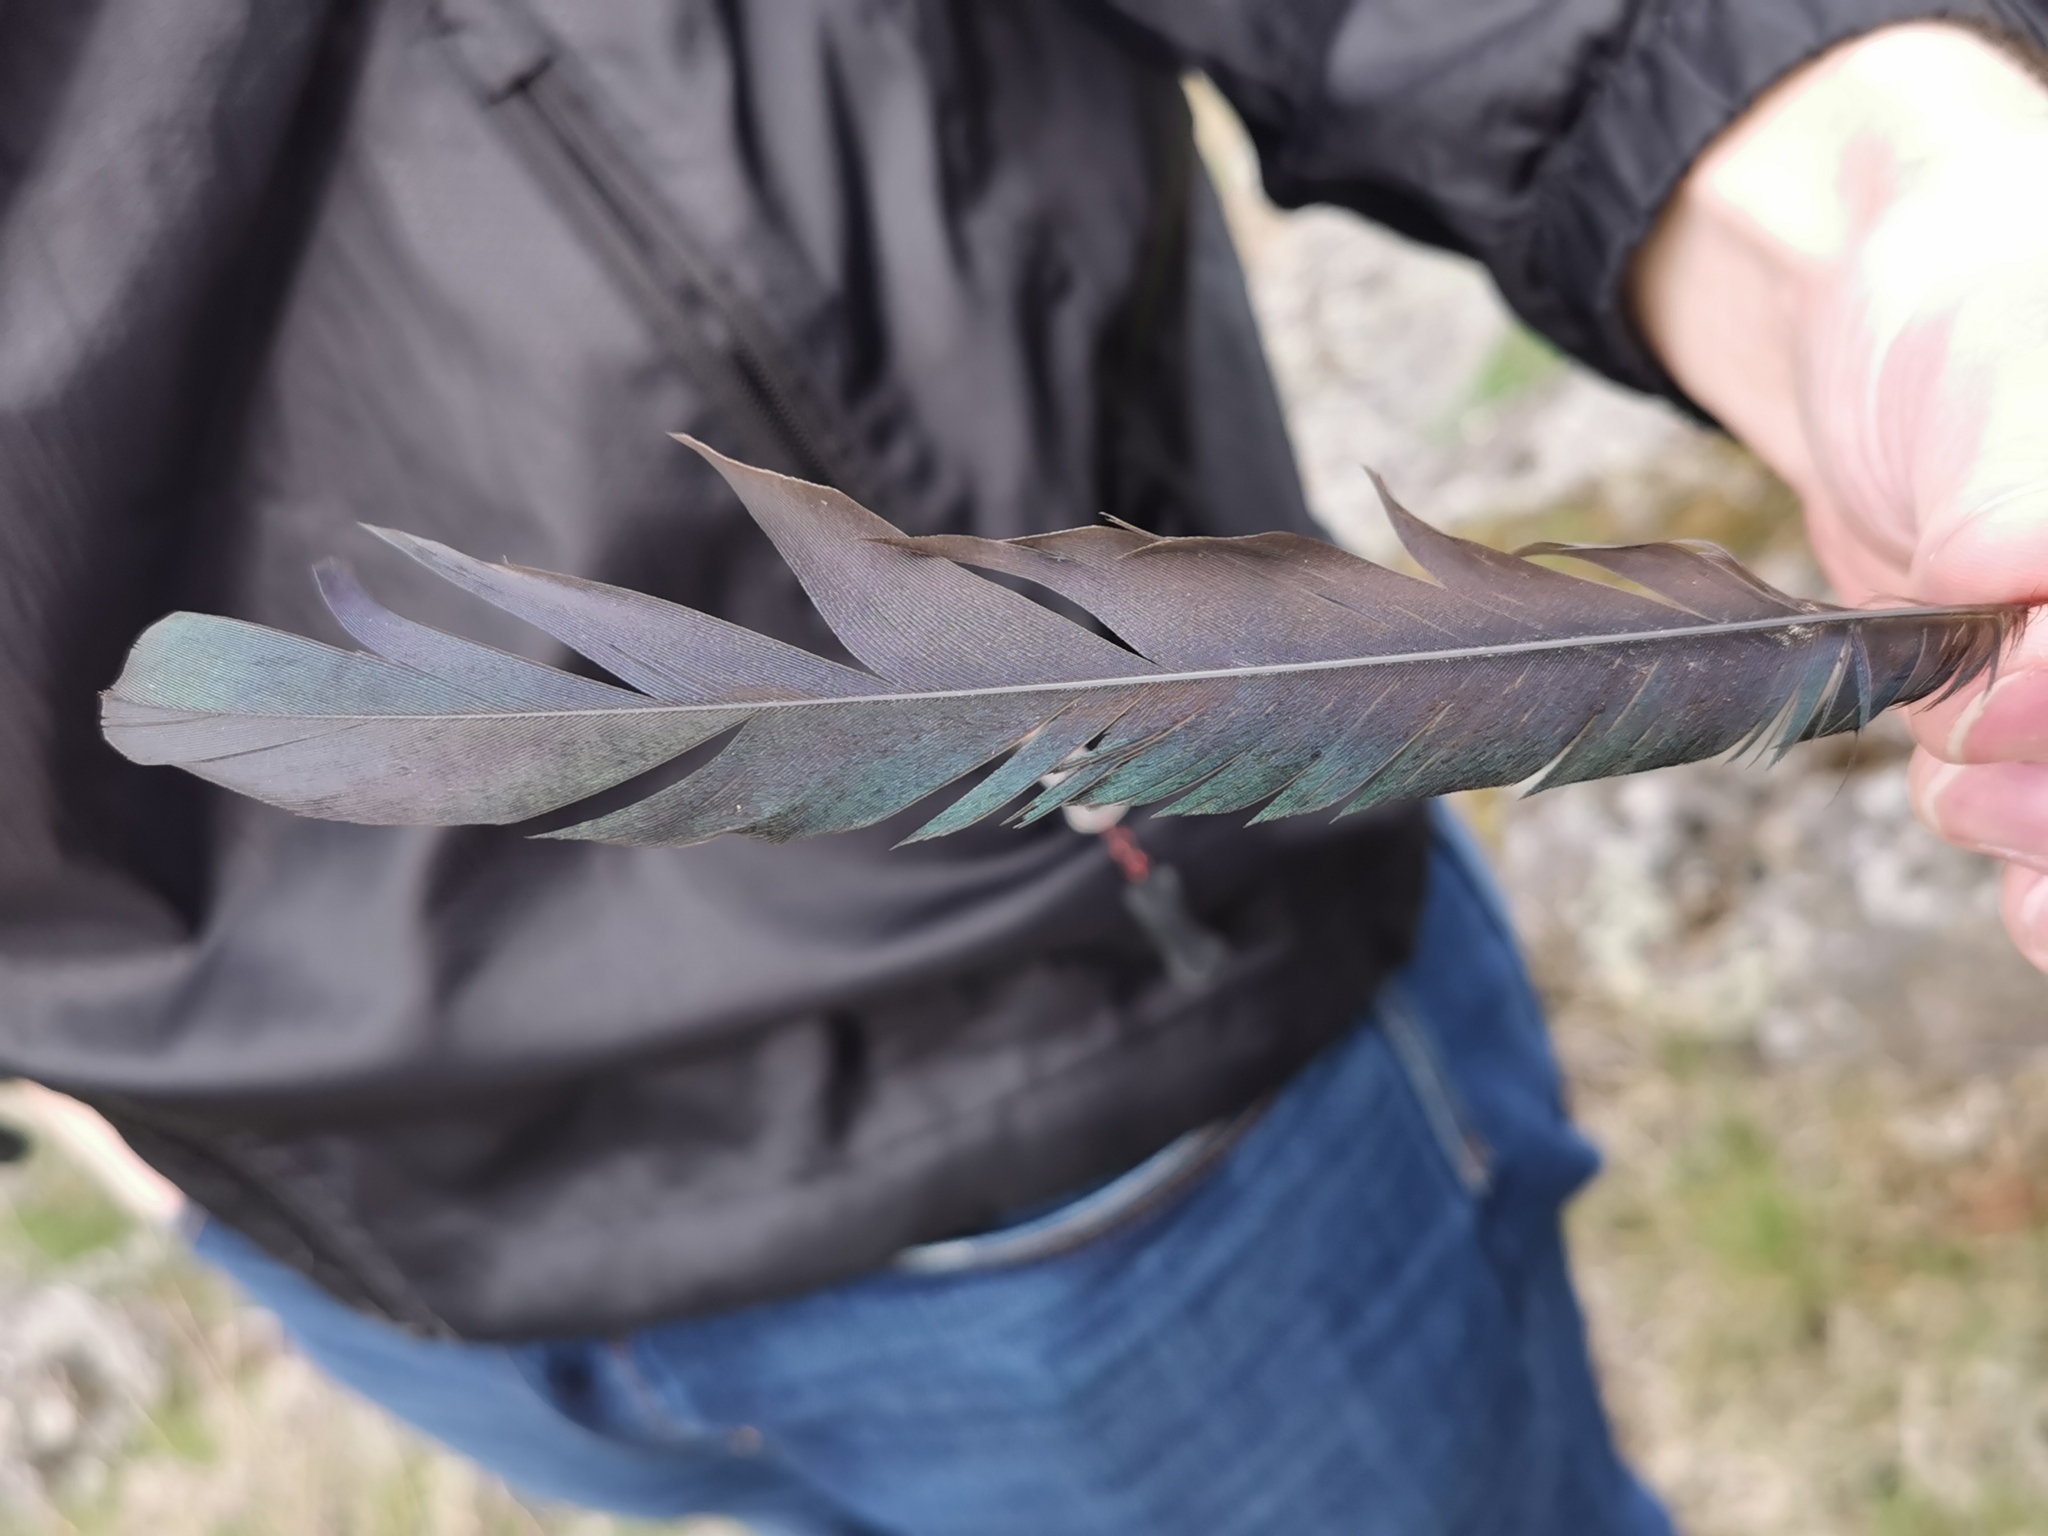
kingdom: Animalia
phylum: Chordata
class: Aves
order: Passeriformes
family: Corvidae
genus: Pica
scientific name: Pica hudsonia
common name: Black-billed magpie
